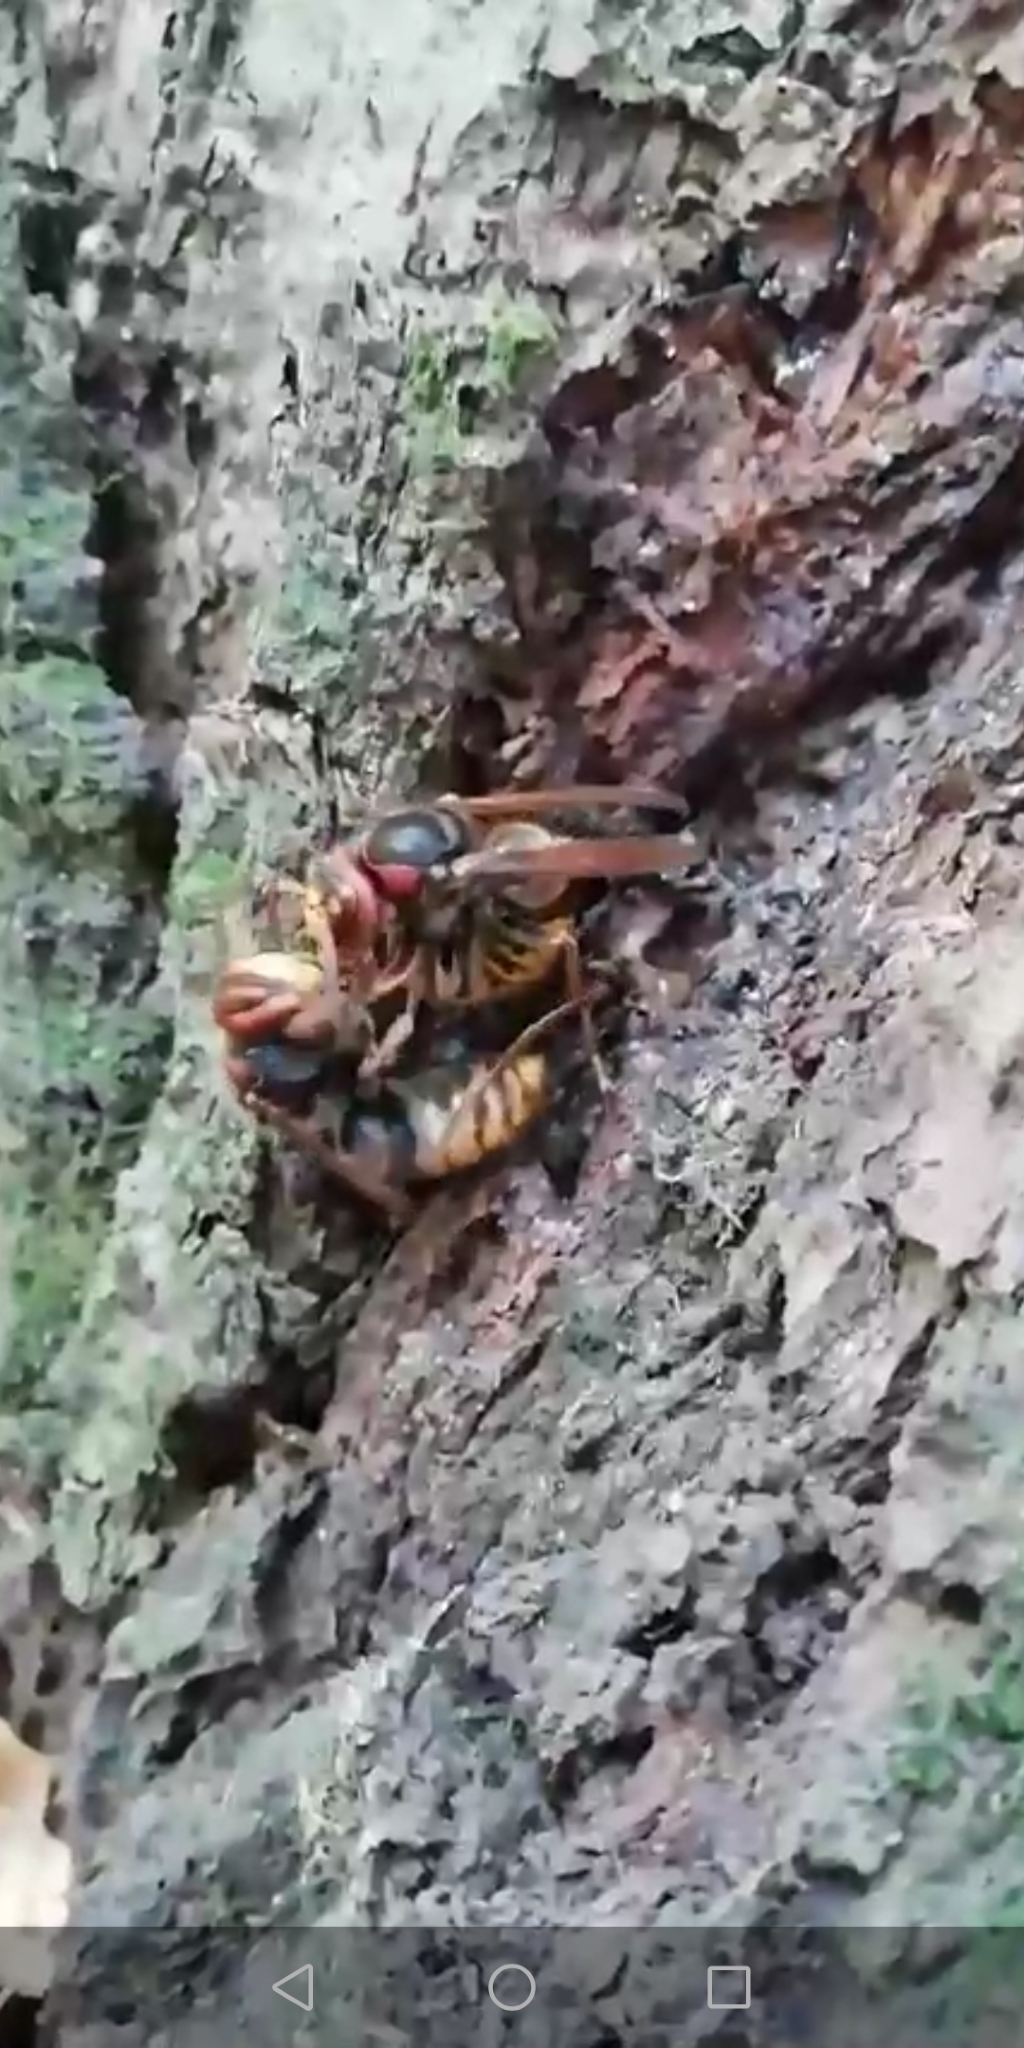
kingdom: Animalia
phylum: Arthropoda
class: Insecta
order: Hymenoptera
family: Vespidae
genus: Vespa
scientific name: Vespa crabro
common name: Hornet
